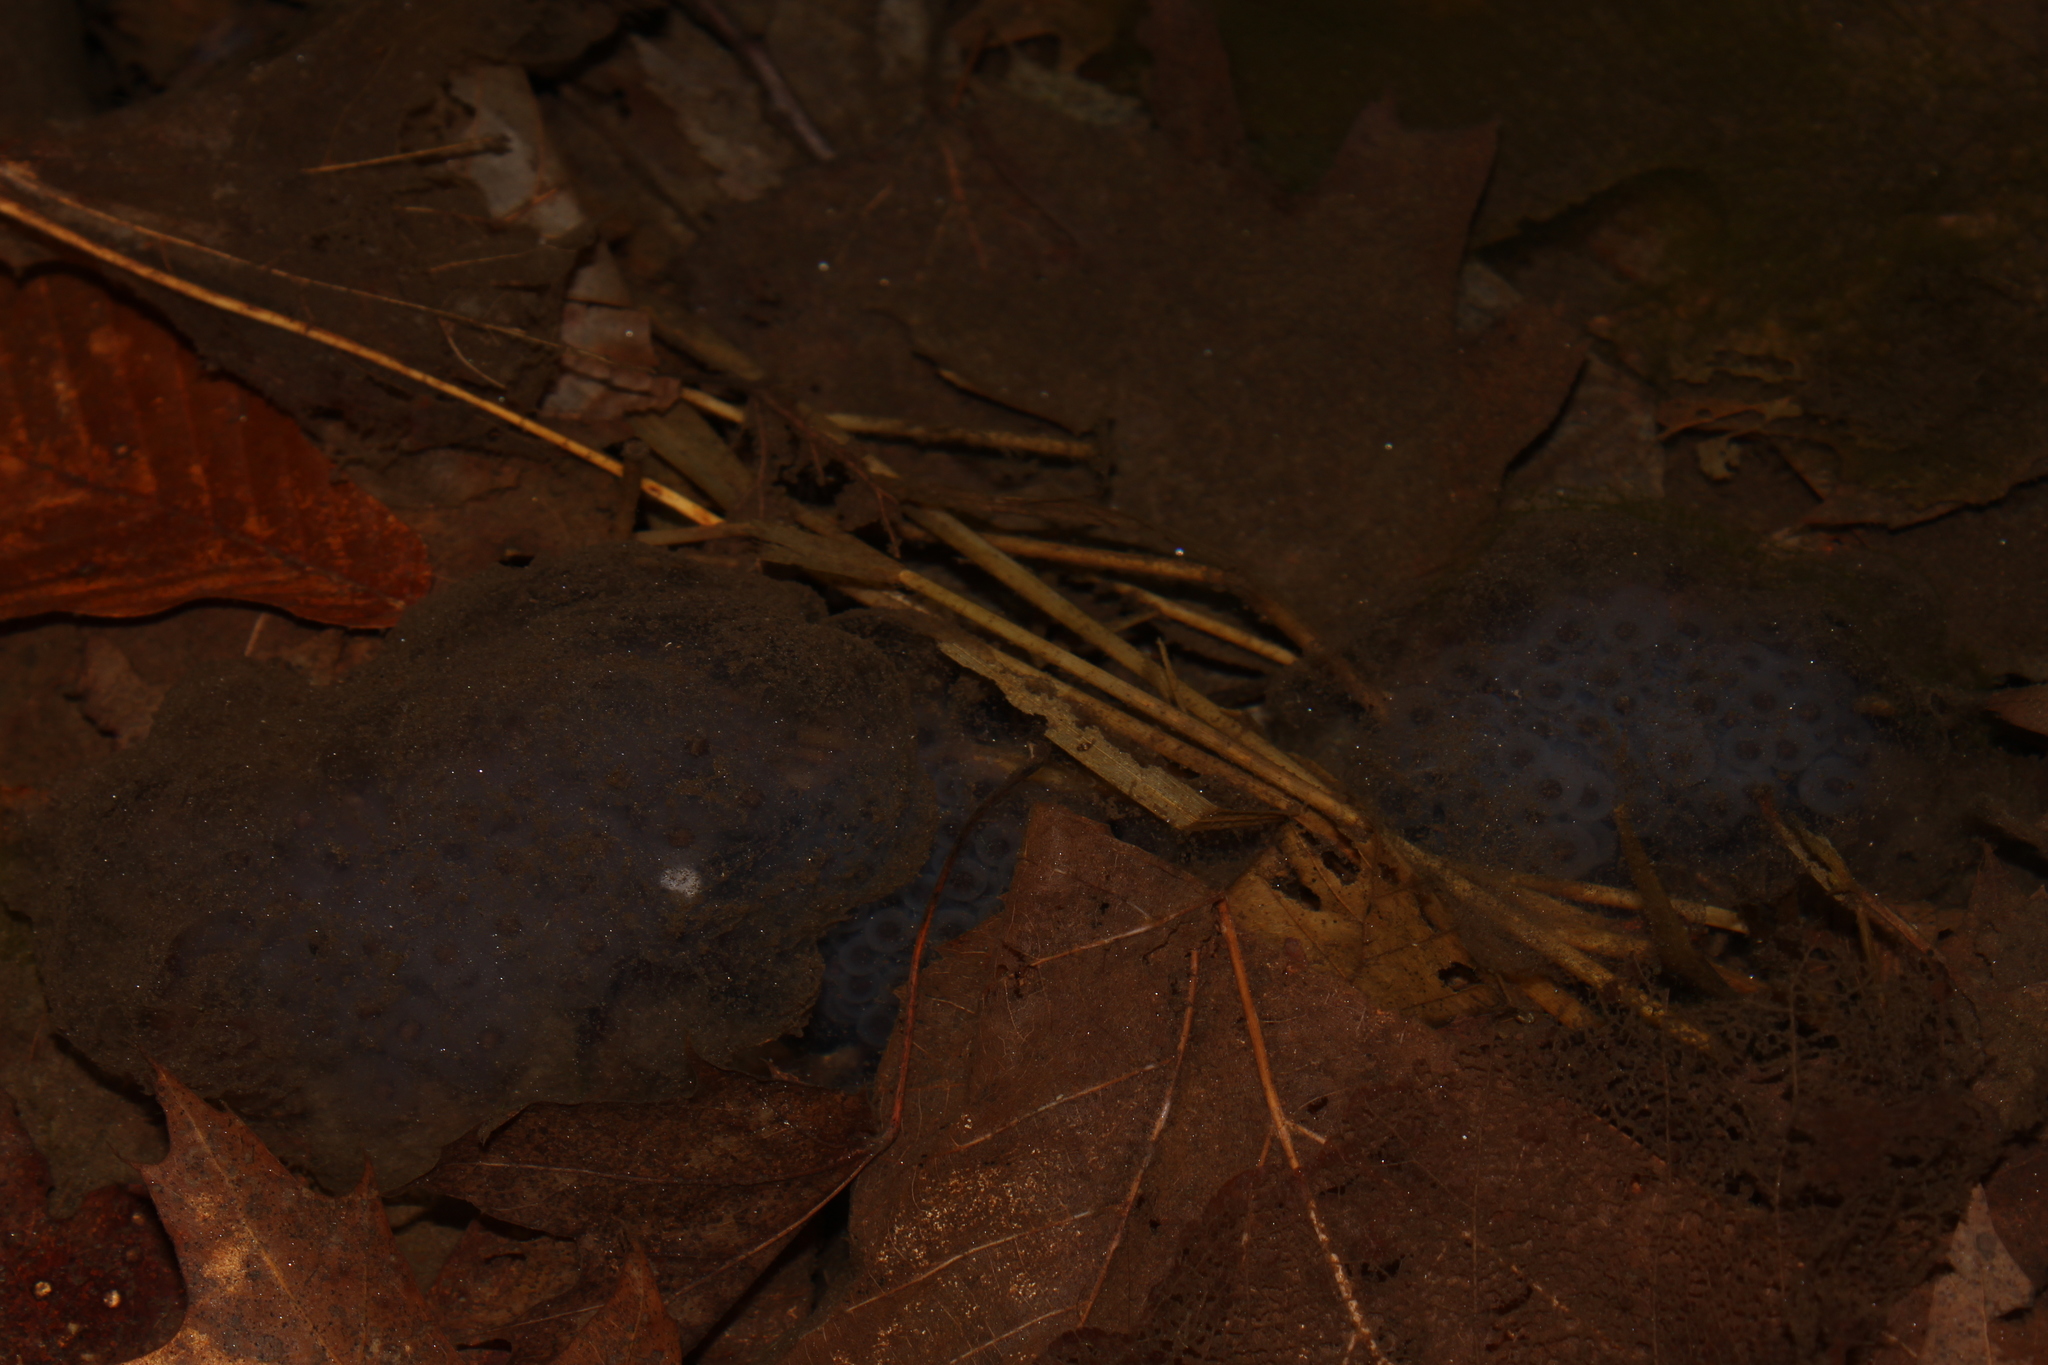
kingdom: Animalia
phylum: Chordata
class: Amphibia
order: Caudata
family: Ambystomatidae
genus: Ambystoma
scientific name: Ambystoma maculatum
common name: Spotted salamander
